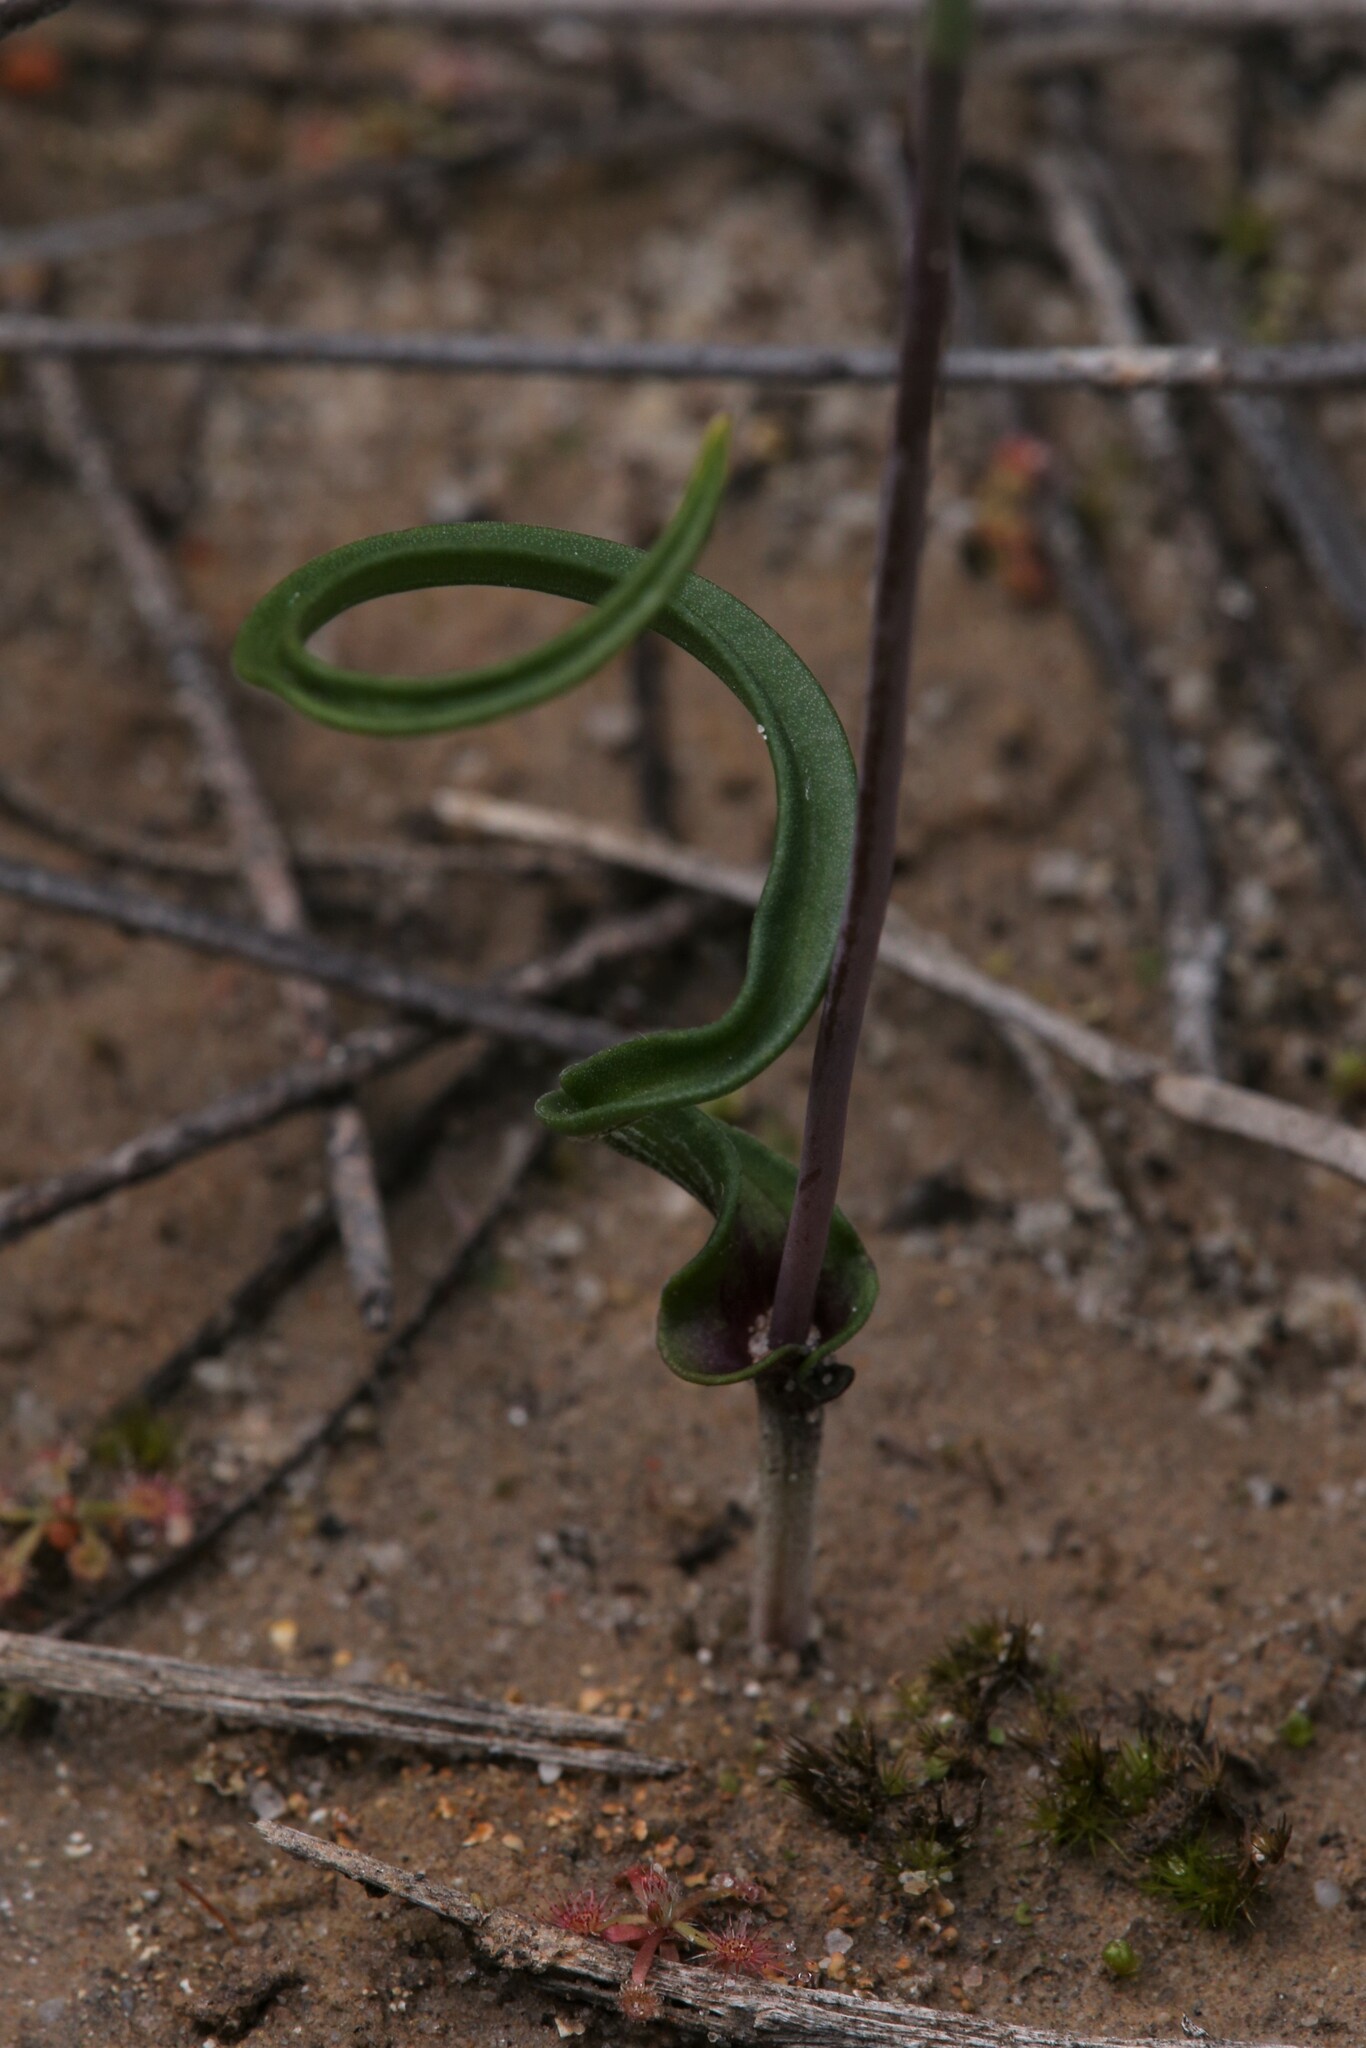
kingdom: Plantae
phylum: Tracheophyta
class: Liliopsida
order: Asparagales
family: Orchidaceae
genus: Thelymitra
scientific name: Thelymitra pulcherrima
